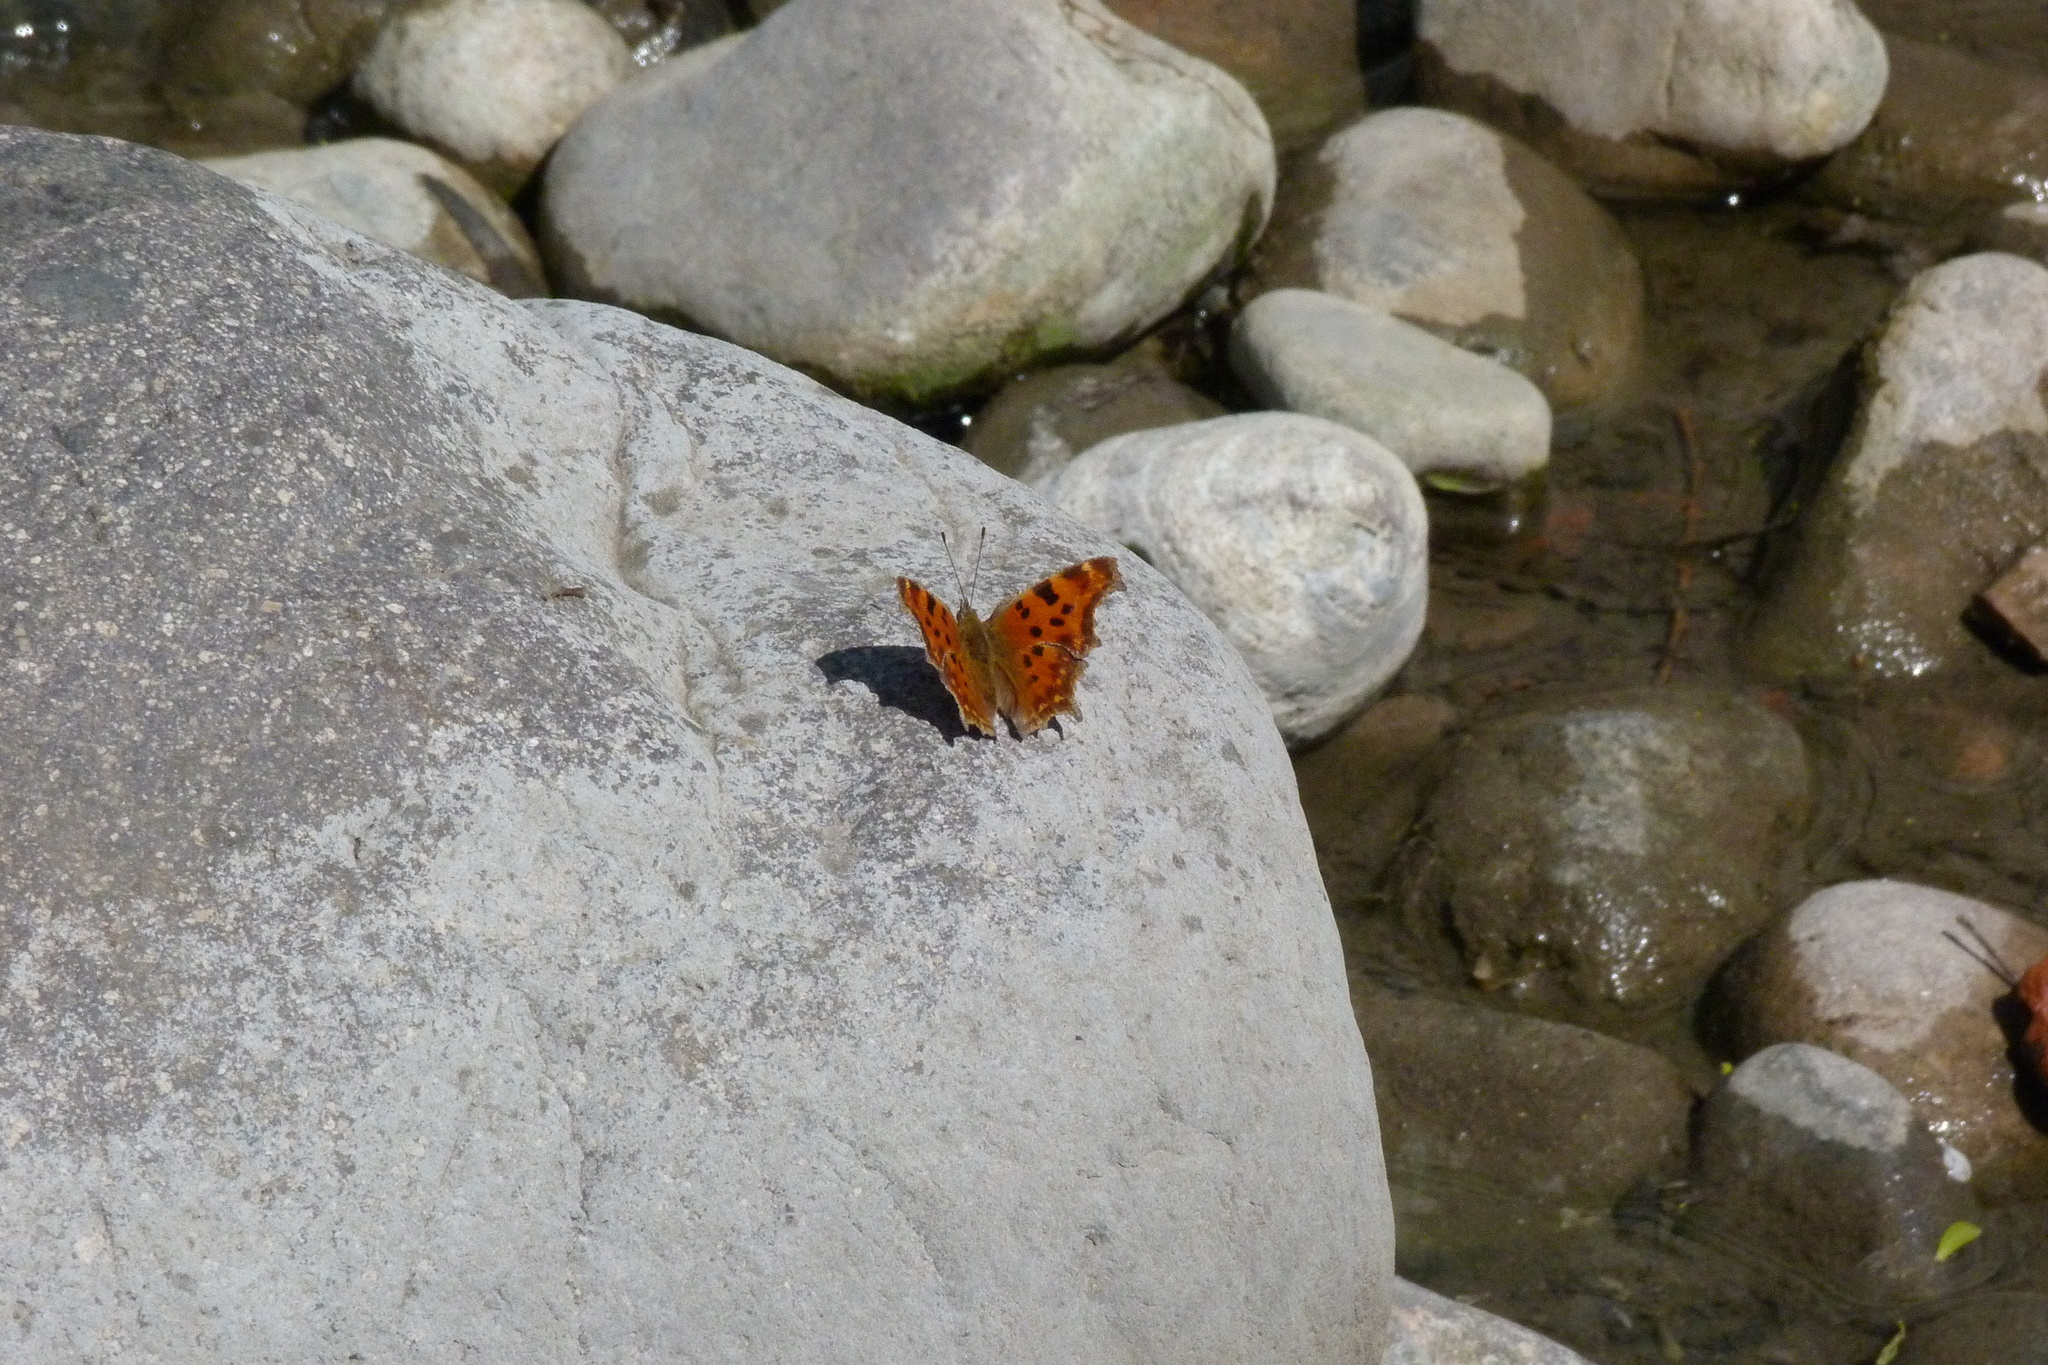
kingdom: Animalia
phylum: Arthropoda
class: Insecta
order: Lepidoptera
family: Nymphalidae
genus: Polygonia
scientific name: Polygonia c-album
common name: Comma
